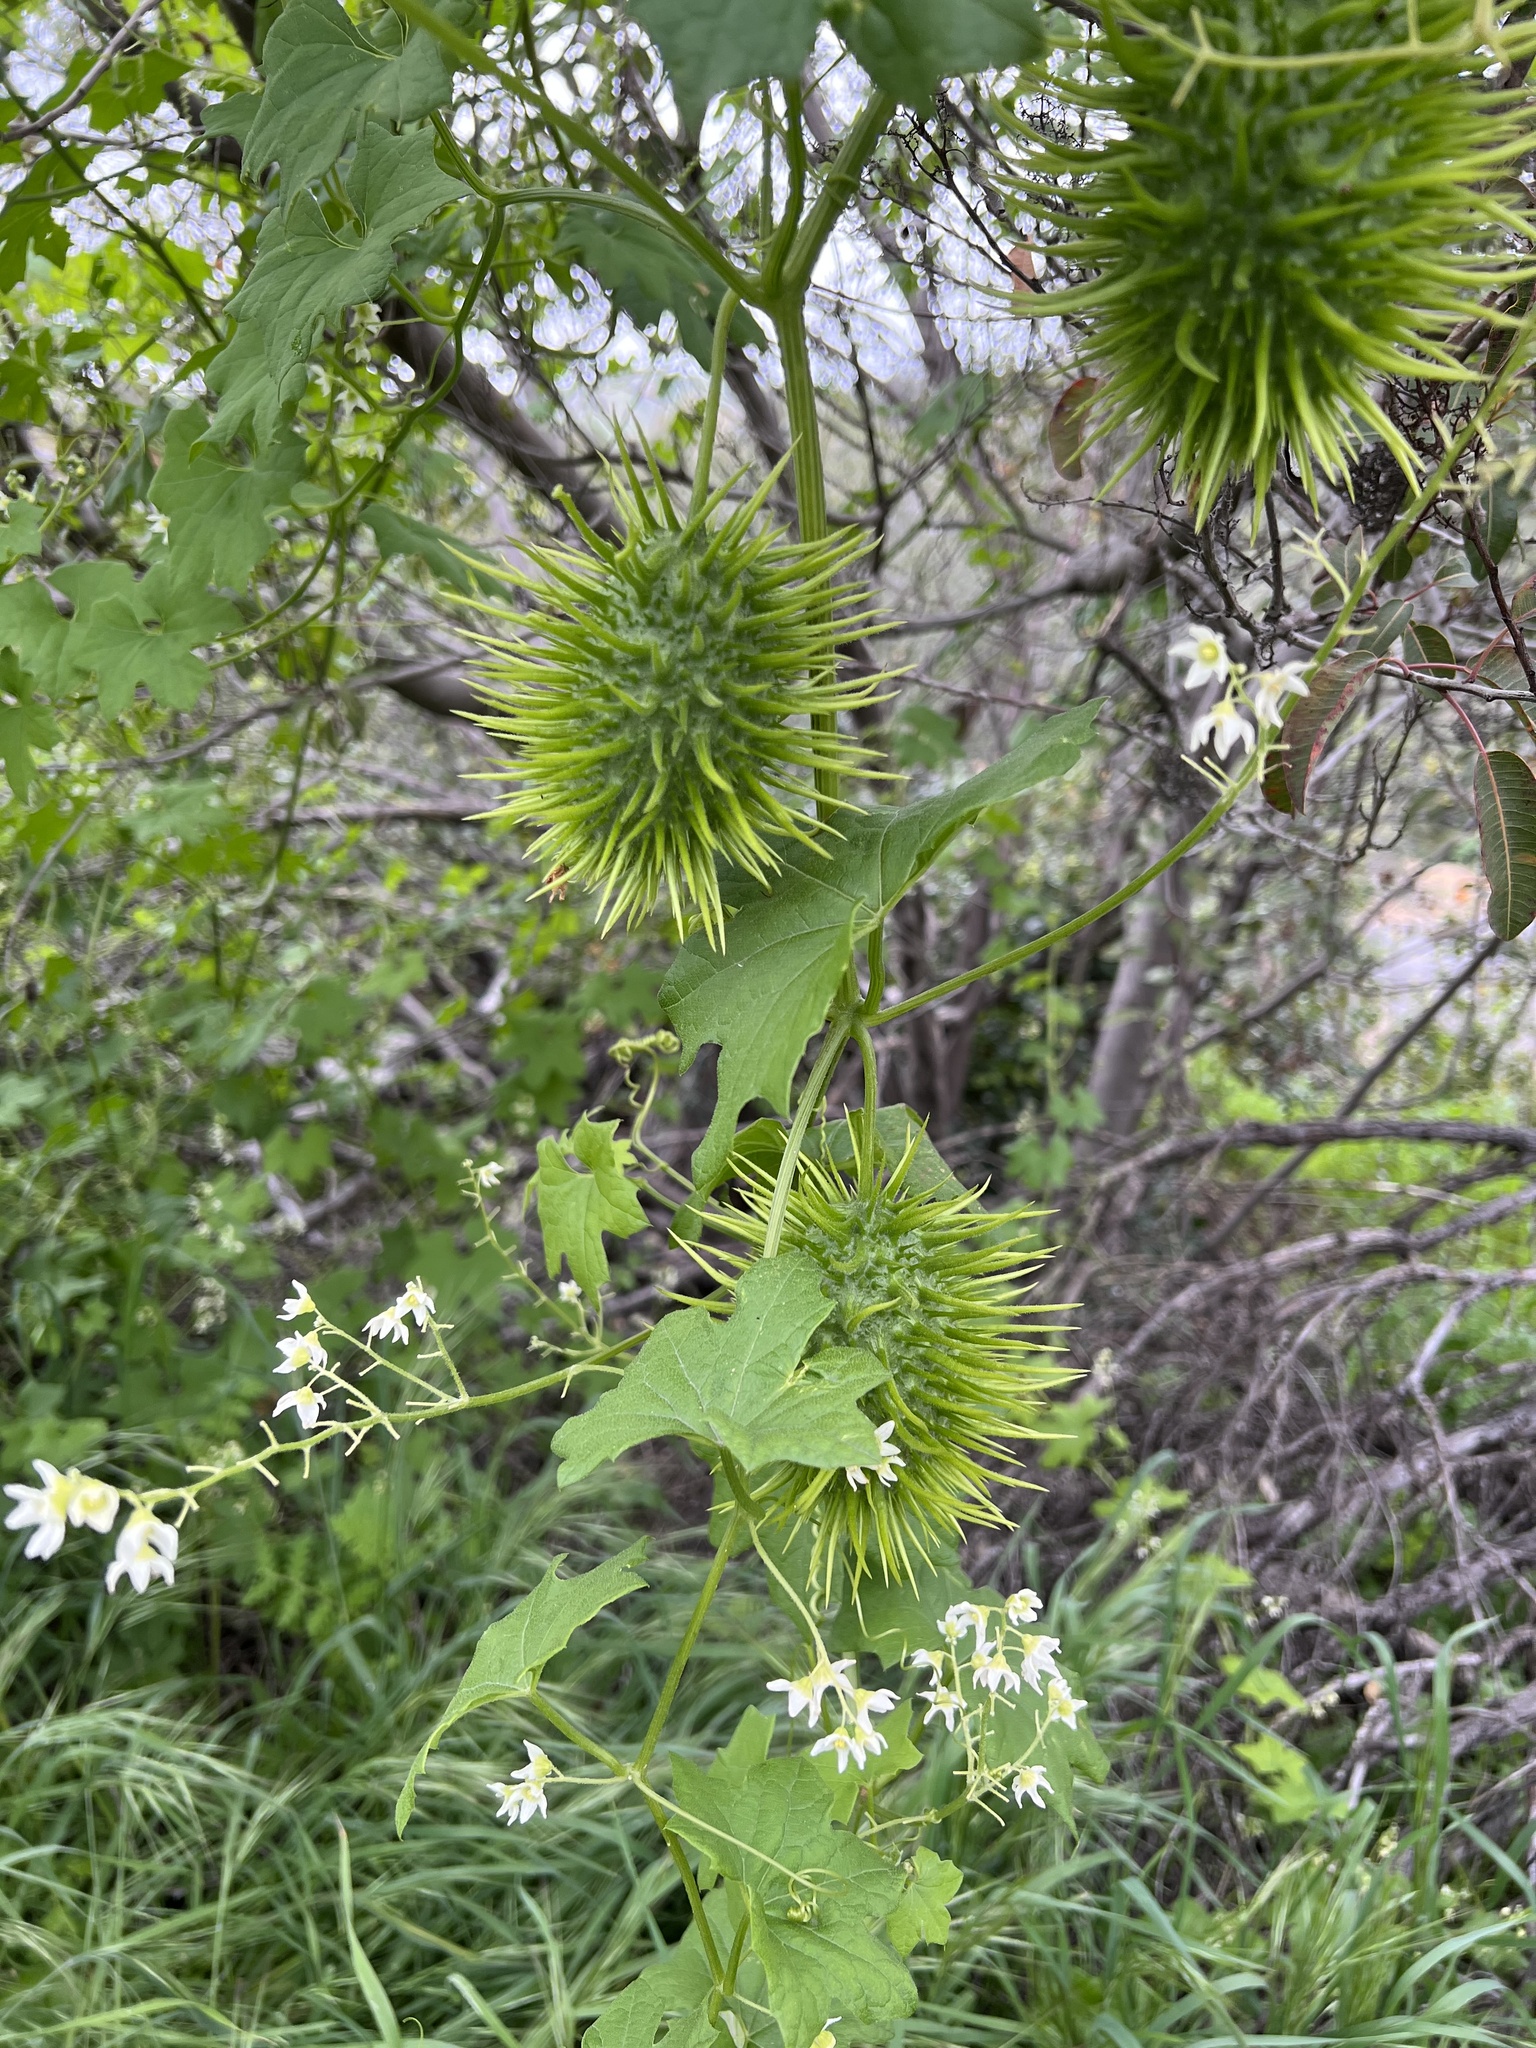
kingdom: Plantae
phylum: Tracheophyta
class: Magnoliopsida
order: Cucurbitales
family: Cucurbitaceae
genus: Marah
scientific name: Marah macrocarpa
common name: Cucamonga manroot
